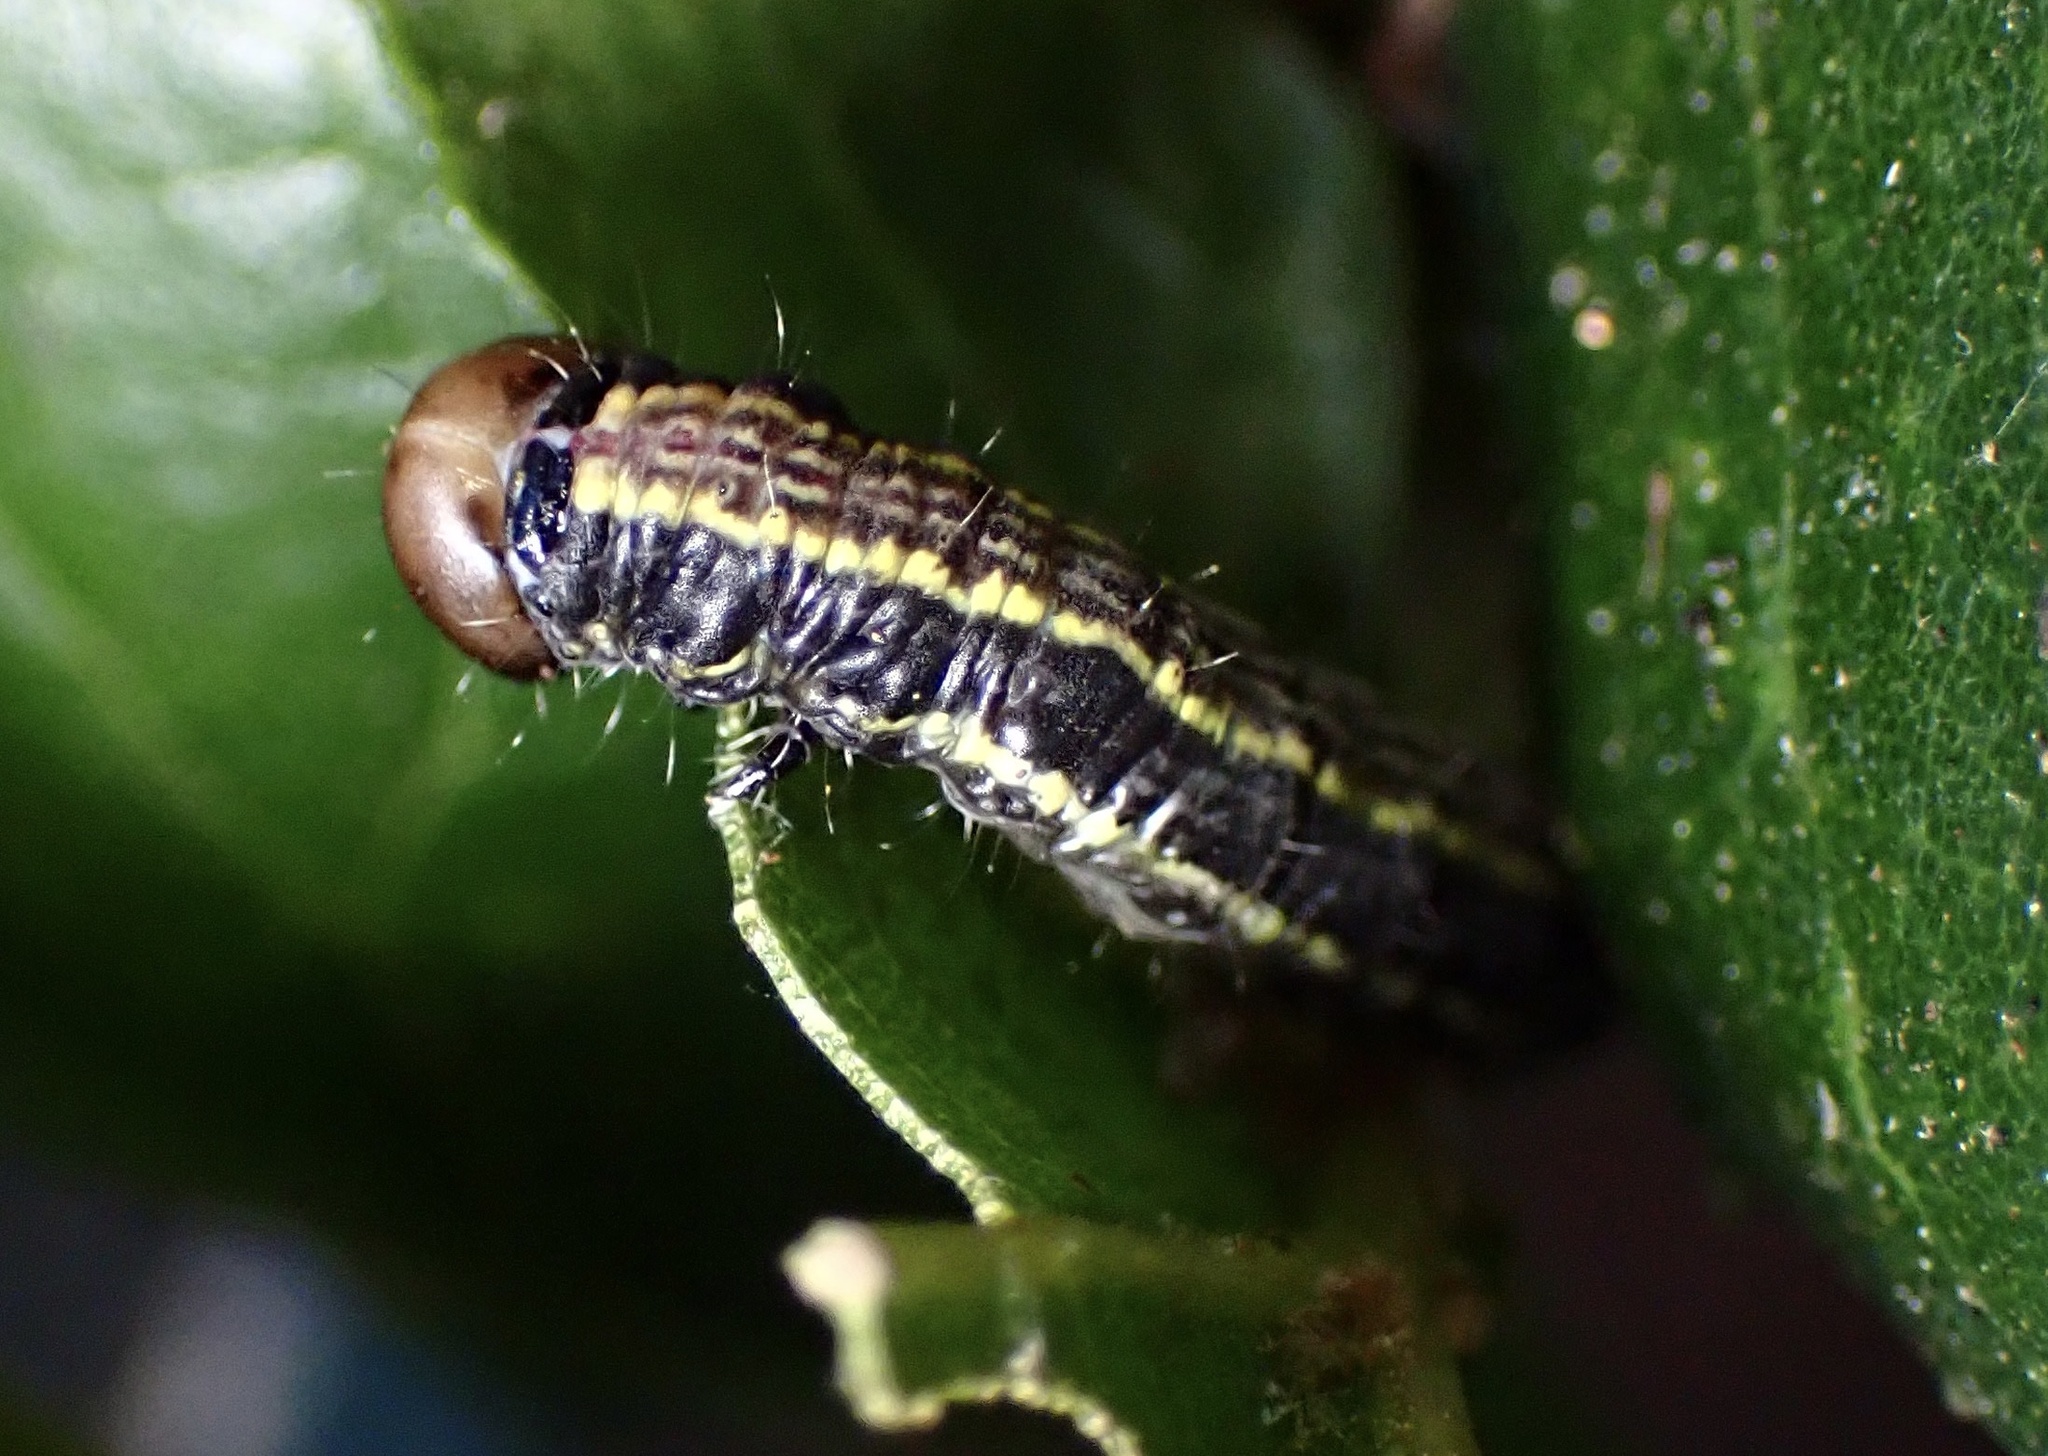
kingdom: Animalia
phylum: Arthropoda
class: Insecta
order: Lepidoptera
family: Notodontidae
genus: Phryganidia
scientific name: Phryganidia californica
